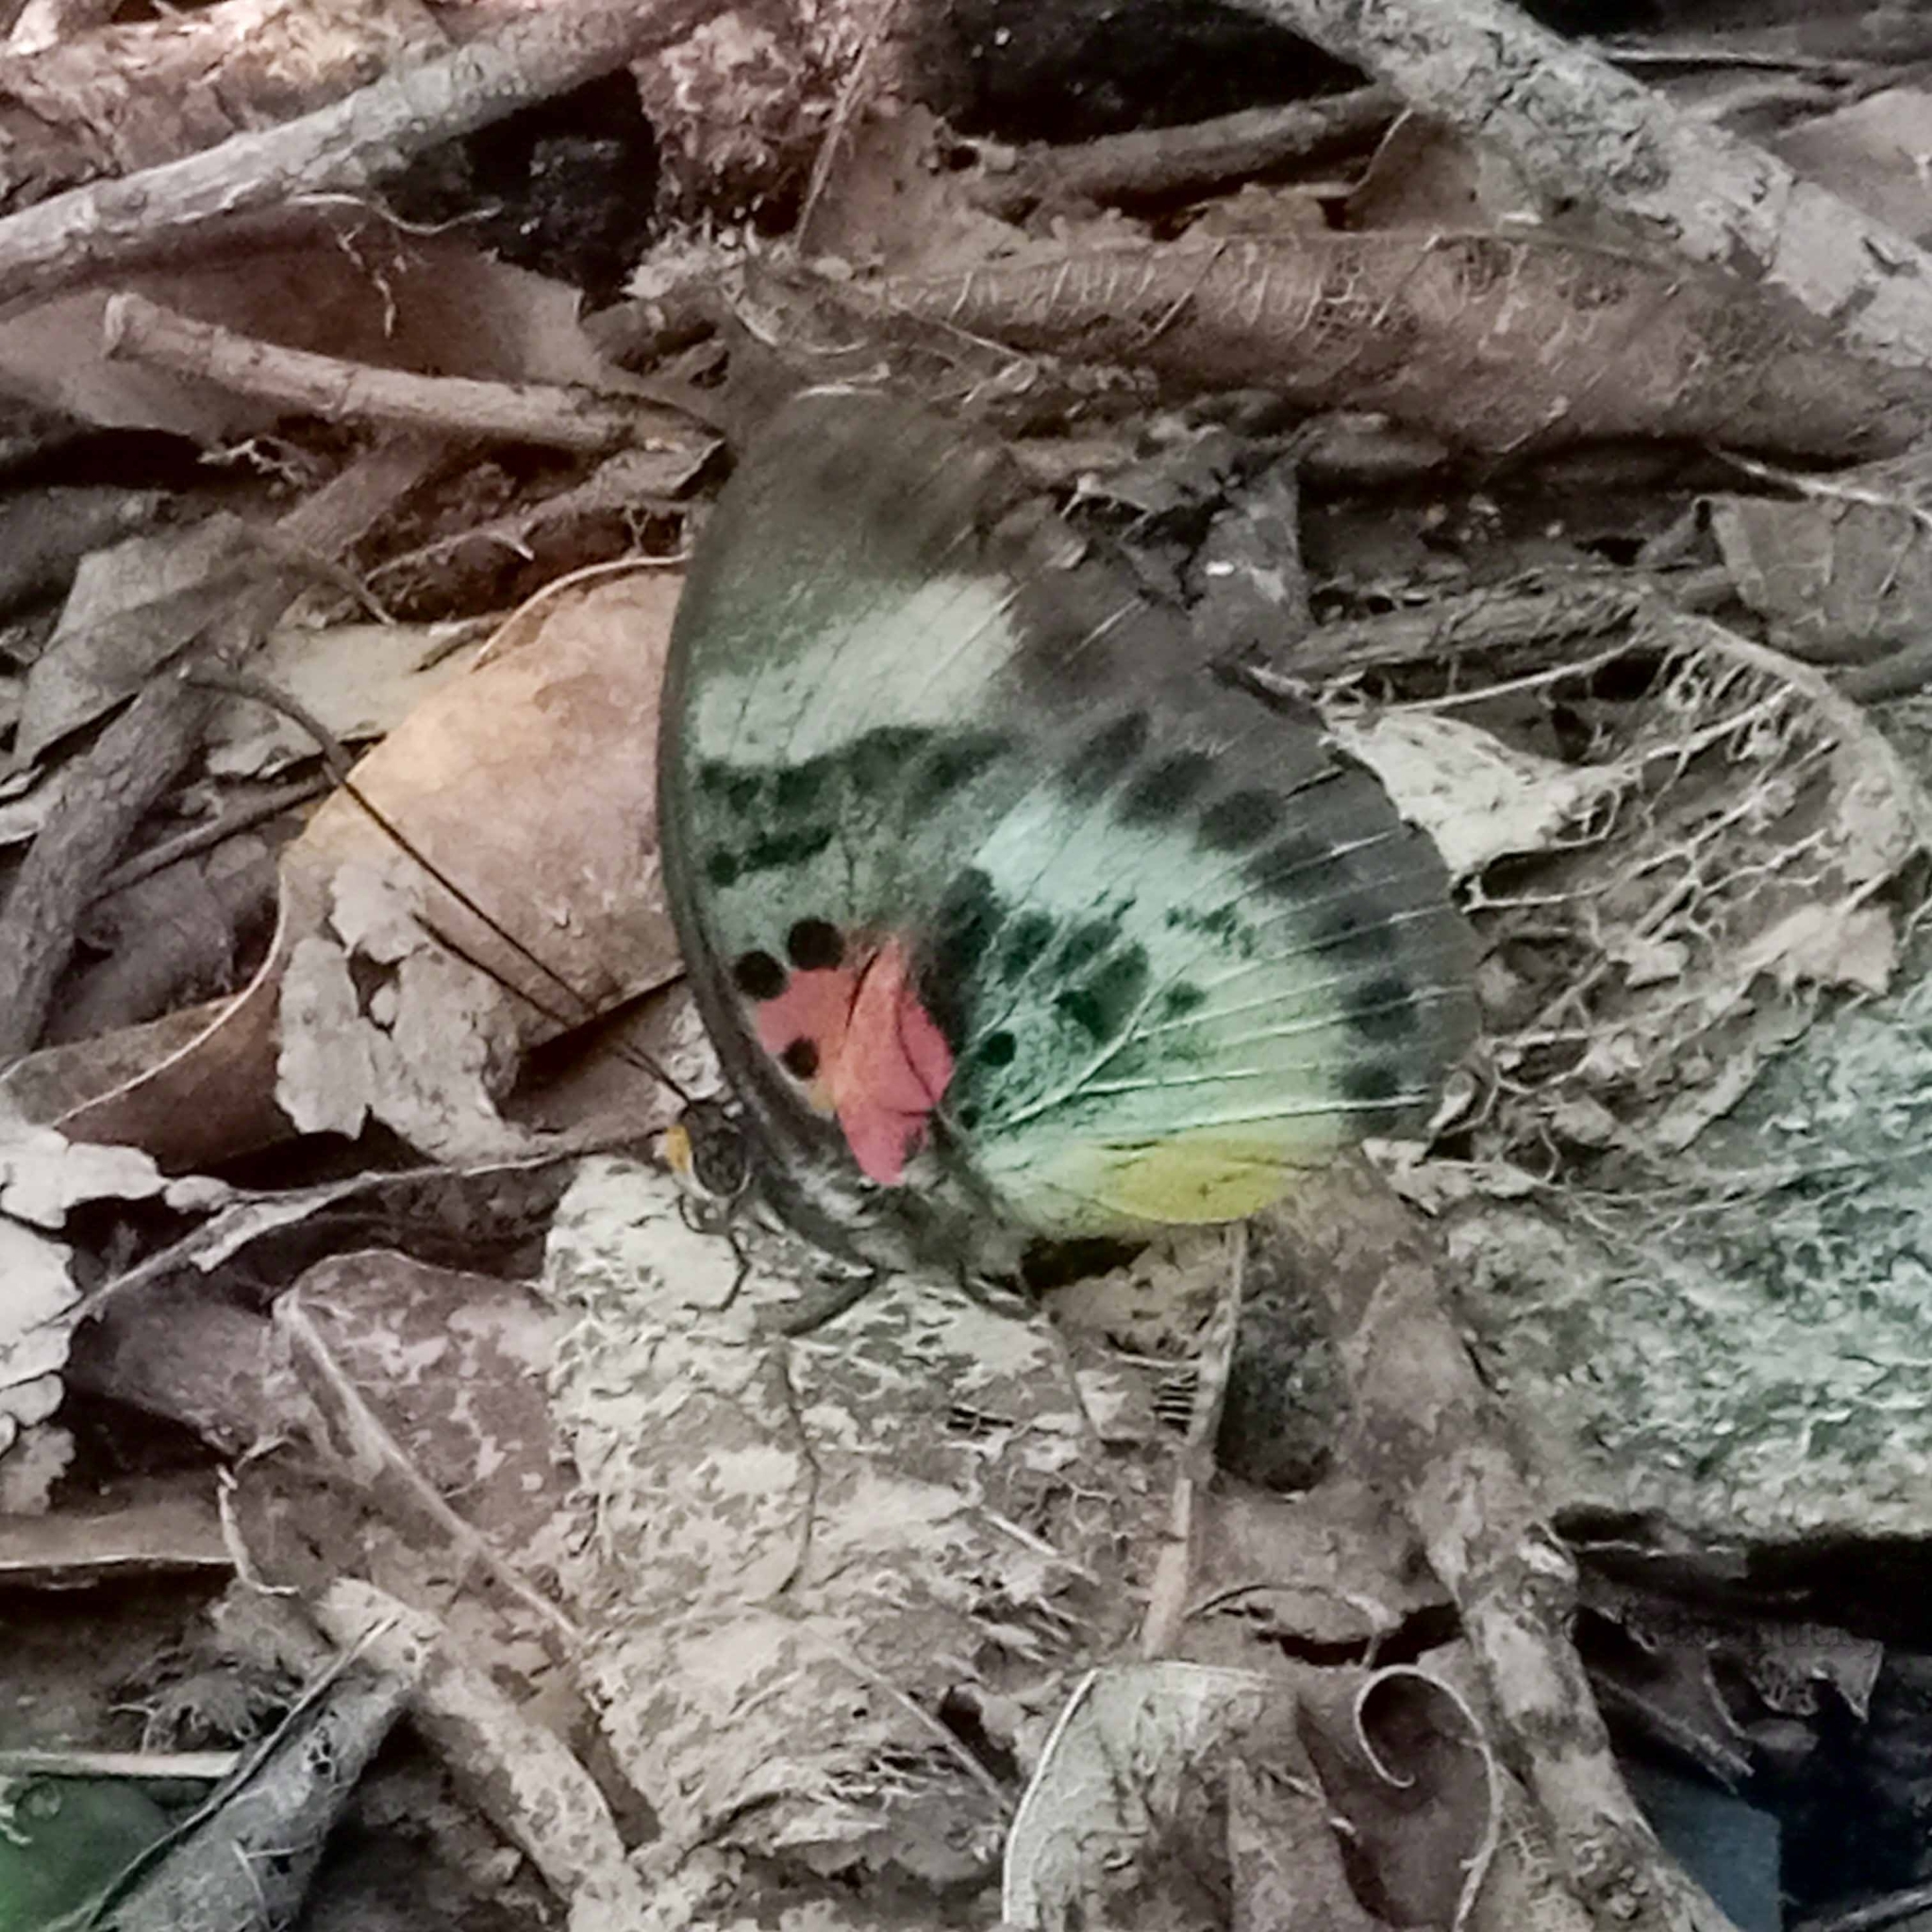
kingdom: Animalia
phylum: Arthropoda
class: Insecta
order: Lepidoptera
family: Nymphalidae
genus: Euphaedra
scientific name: Euphaedra permixtum
